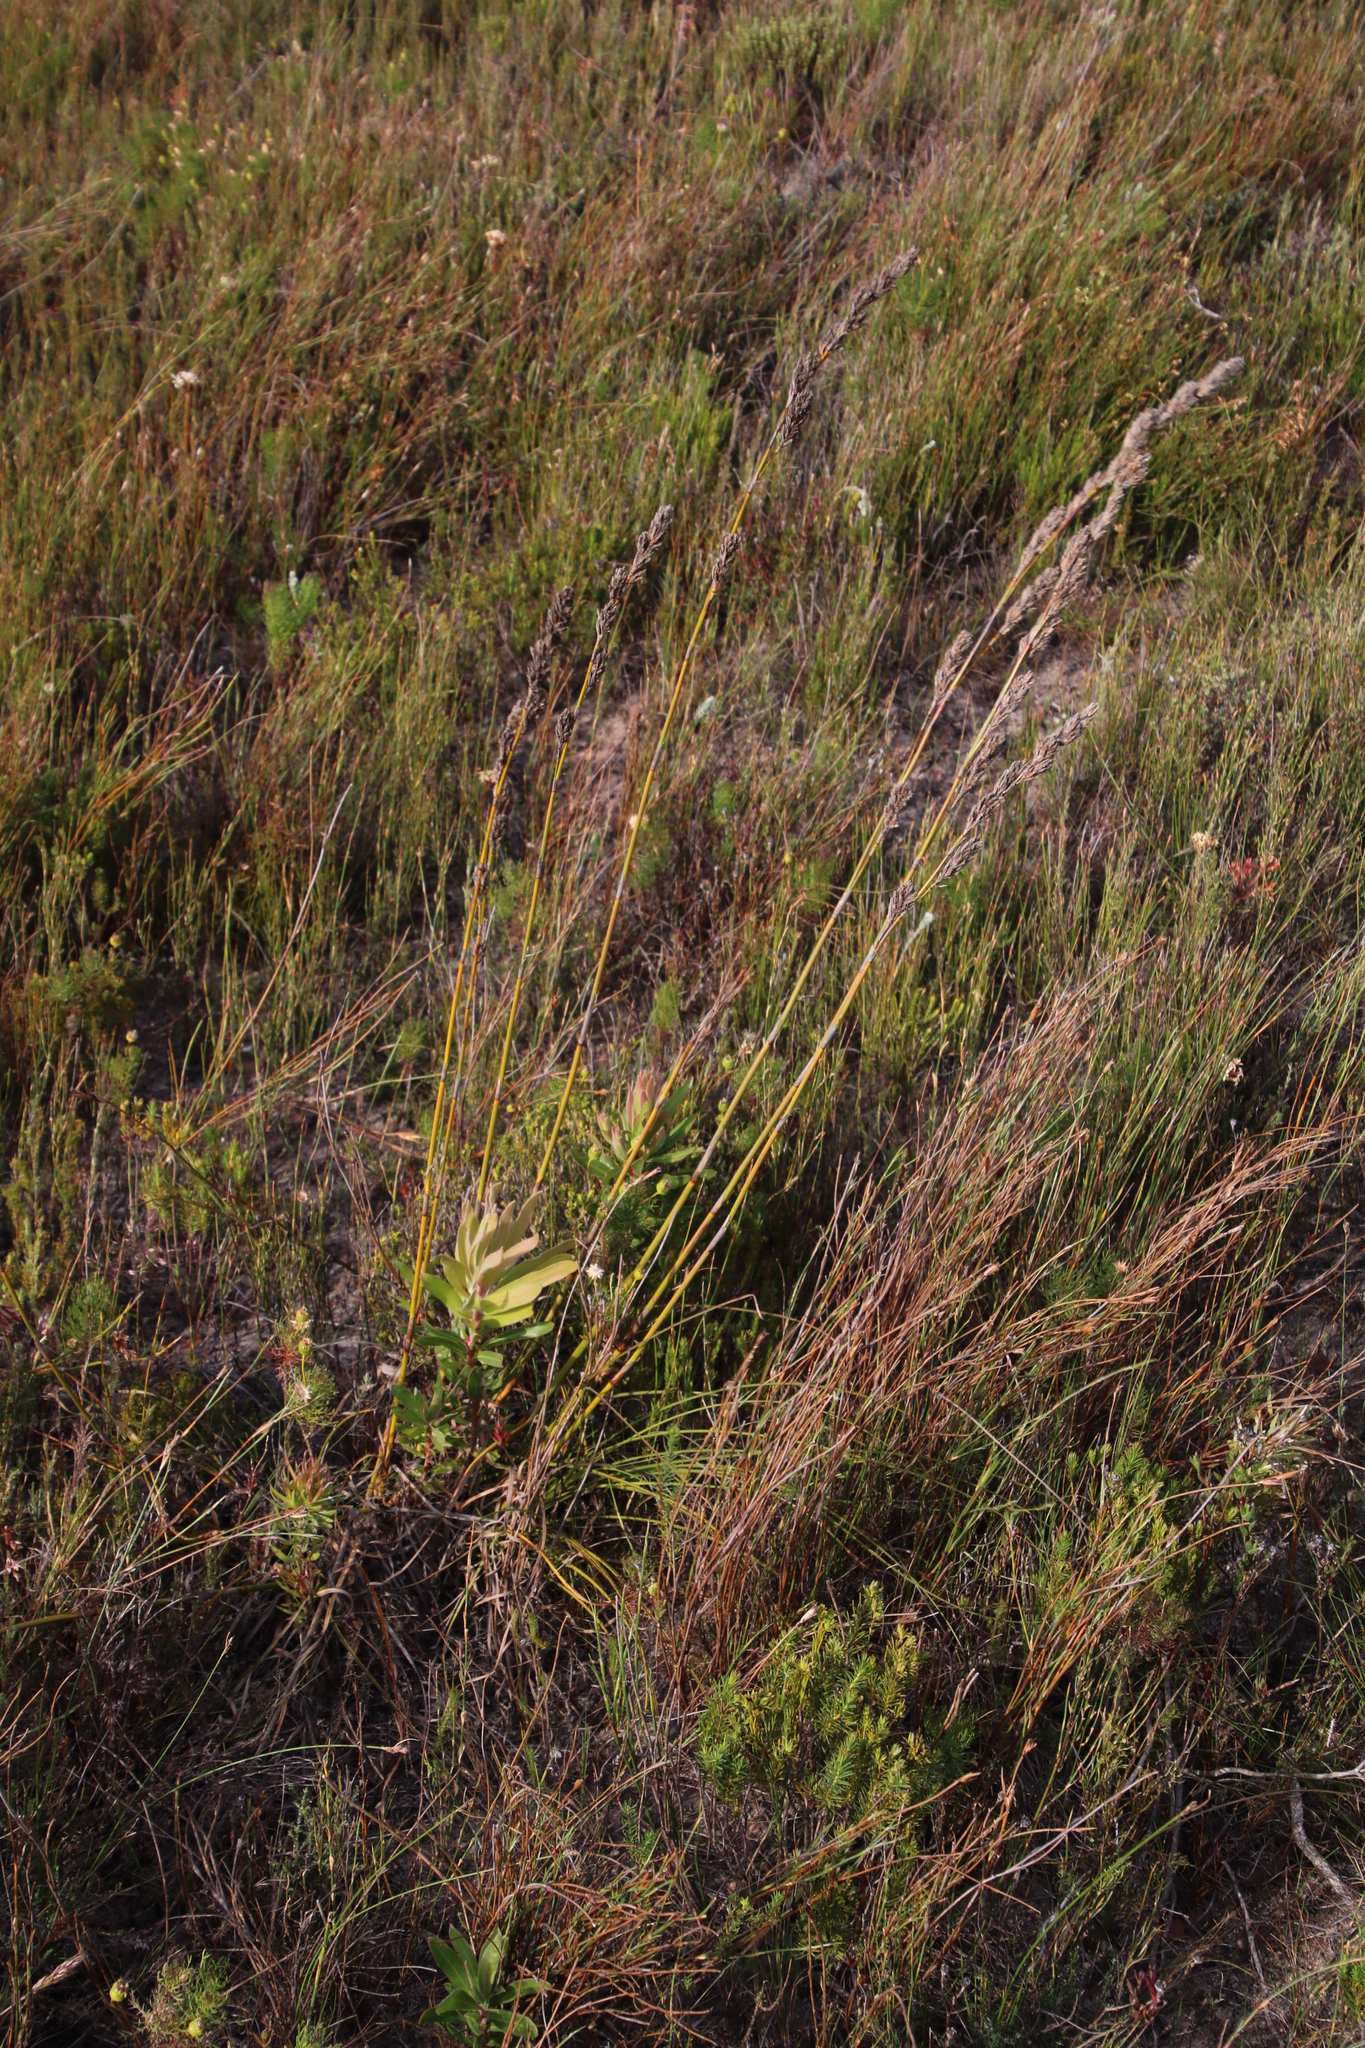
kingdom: Plantae
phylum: Tracheophyta
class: Liliopsida
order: Poales
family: Cyperaceae
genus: Tetraria
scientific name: Tetraria bromoides
